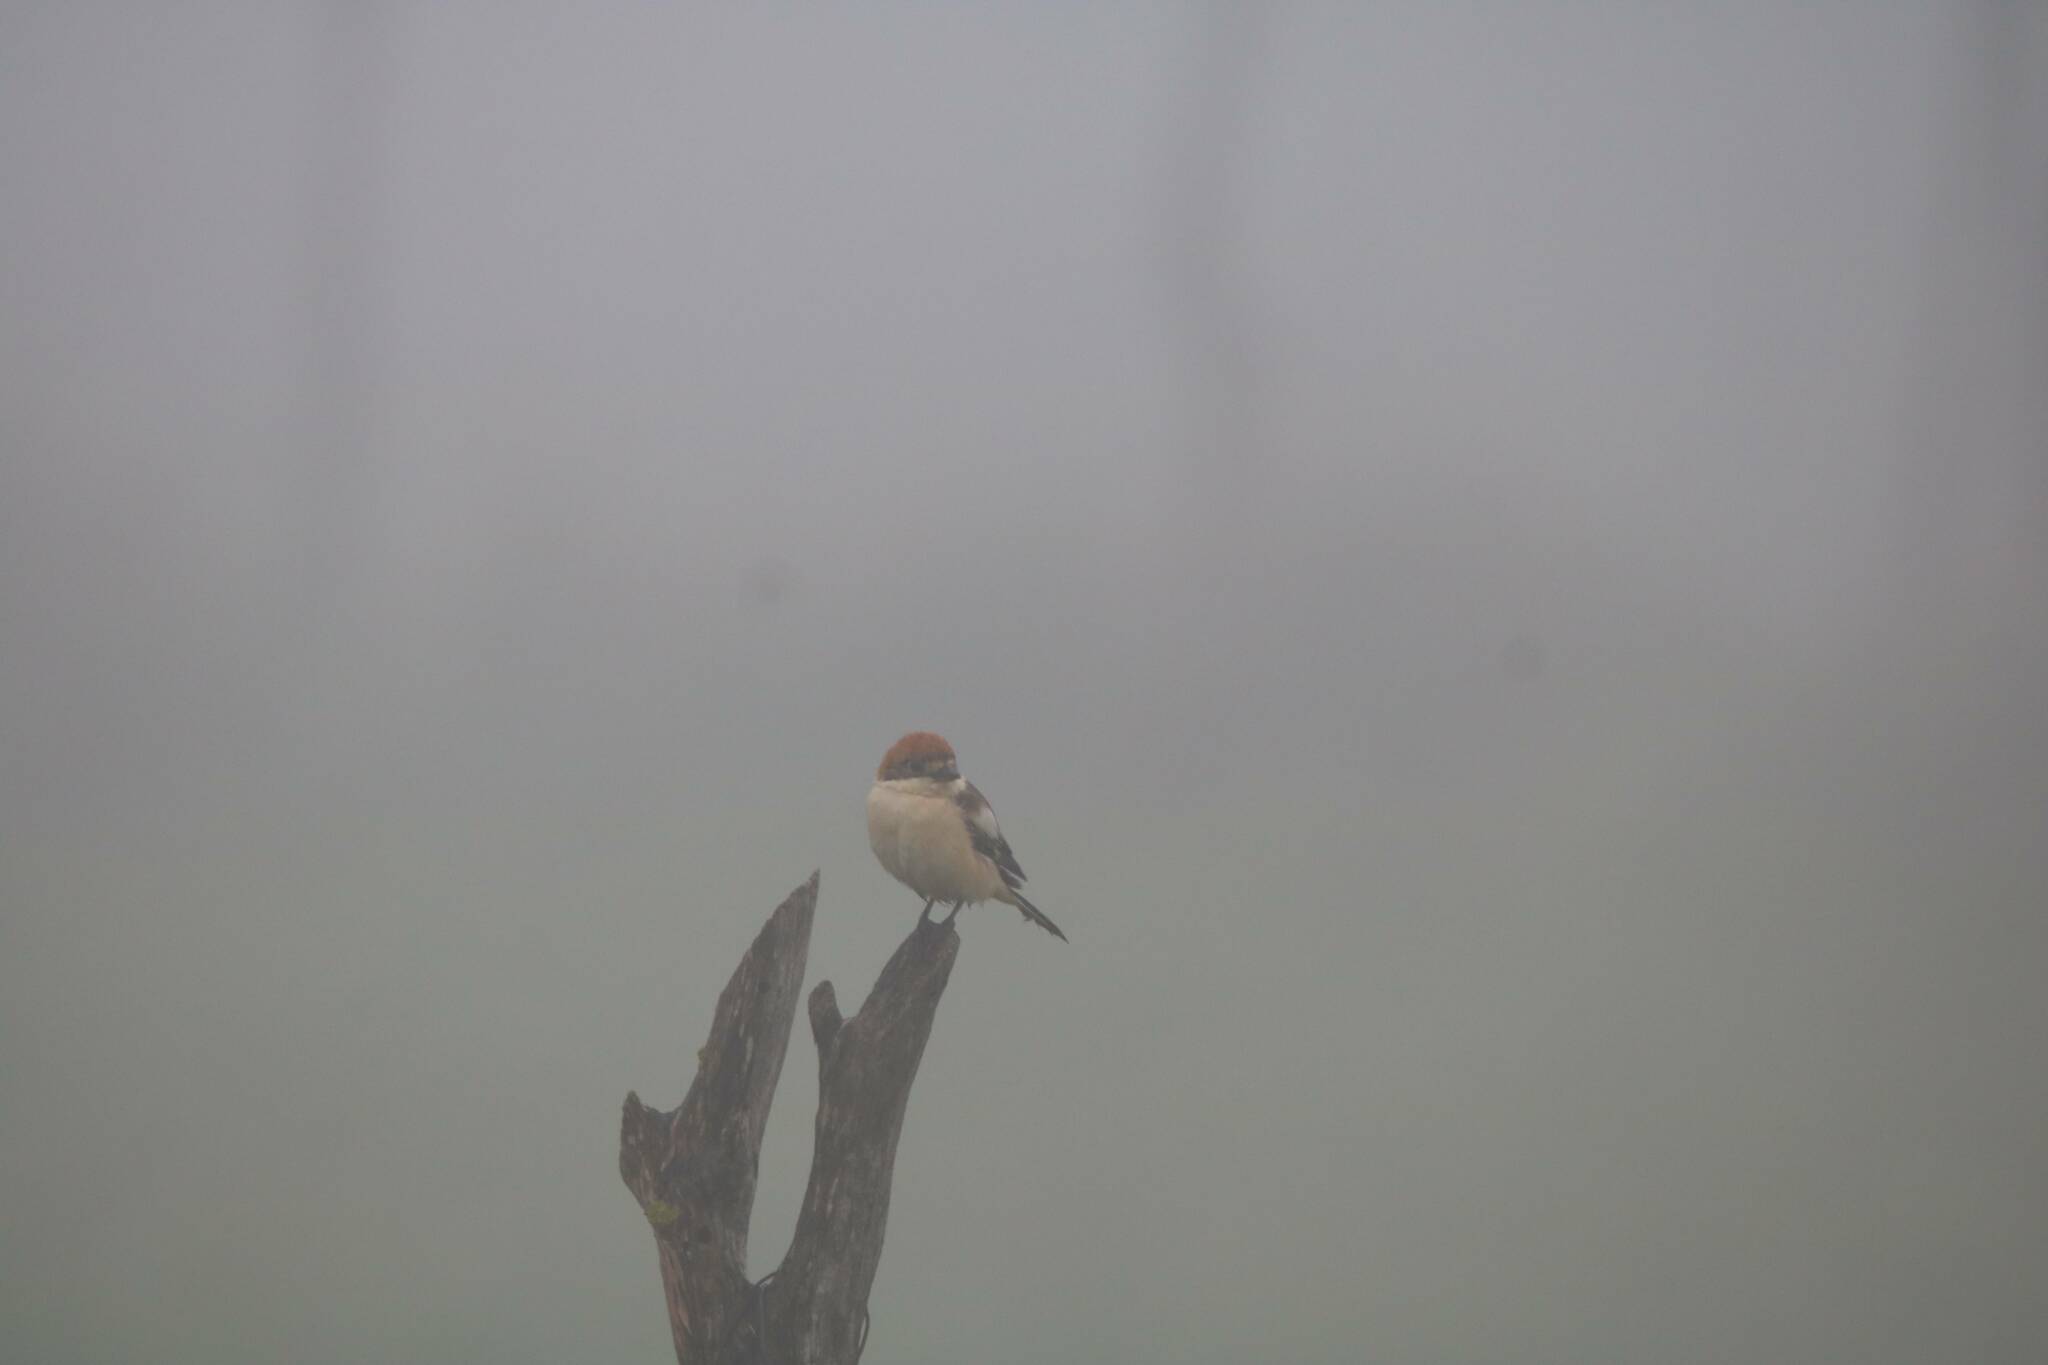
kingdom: Animalia
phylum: Chordata
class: Aves
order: Passeriformes
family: Laniidae
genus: Lanius
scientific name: Lanius senator
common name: Woodchat shrike
